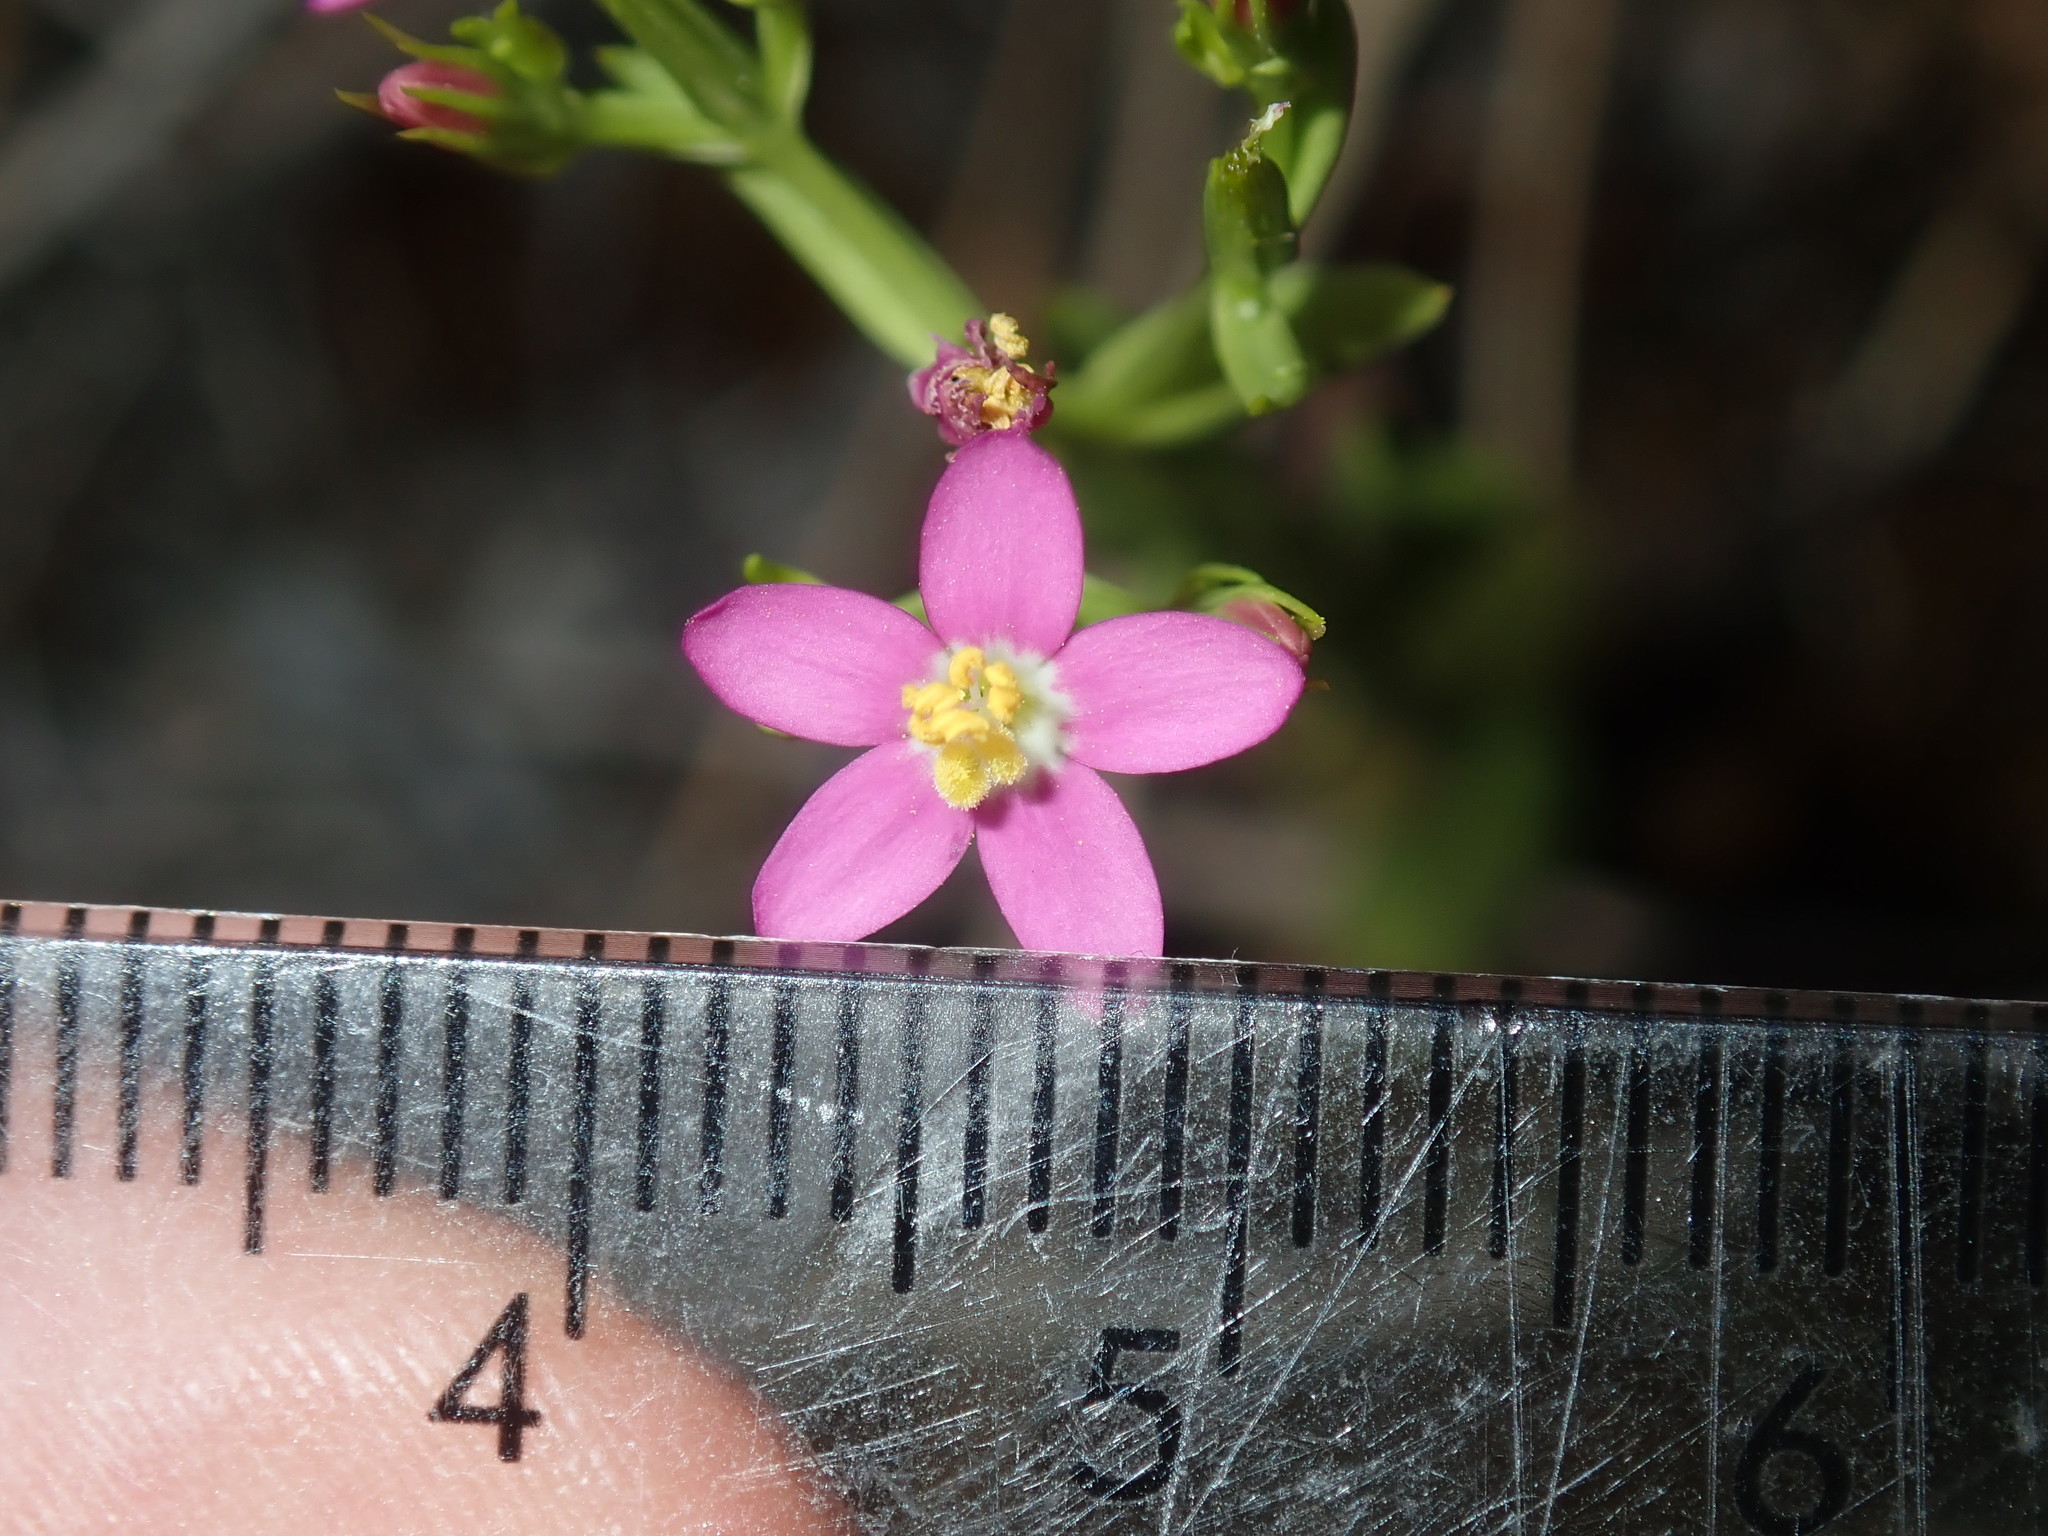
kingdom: Plantae
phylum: Tracheophyta
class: Magnoliopsida
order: Gentianales
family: Gentianaceae
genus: Centaurium
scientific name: Centaurium tenuiflorum
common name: Slender centaury
